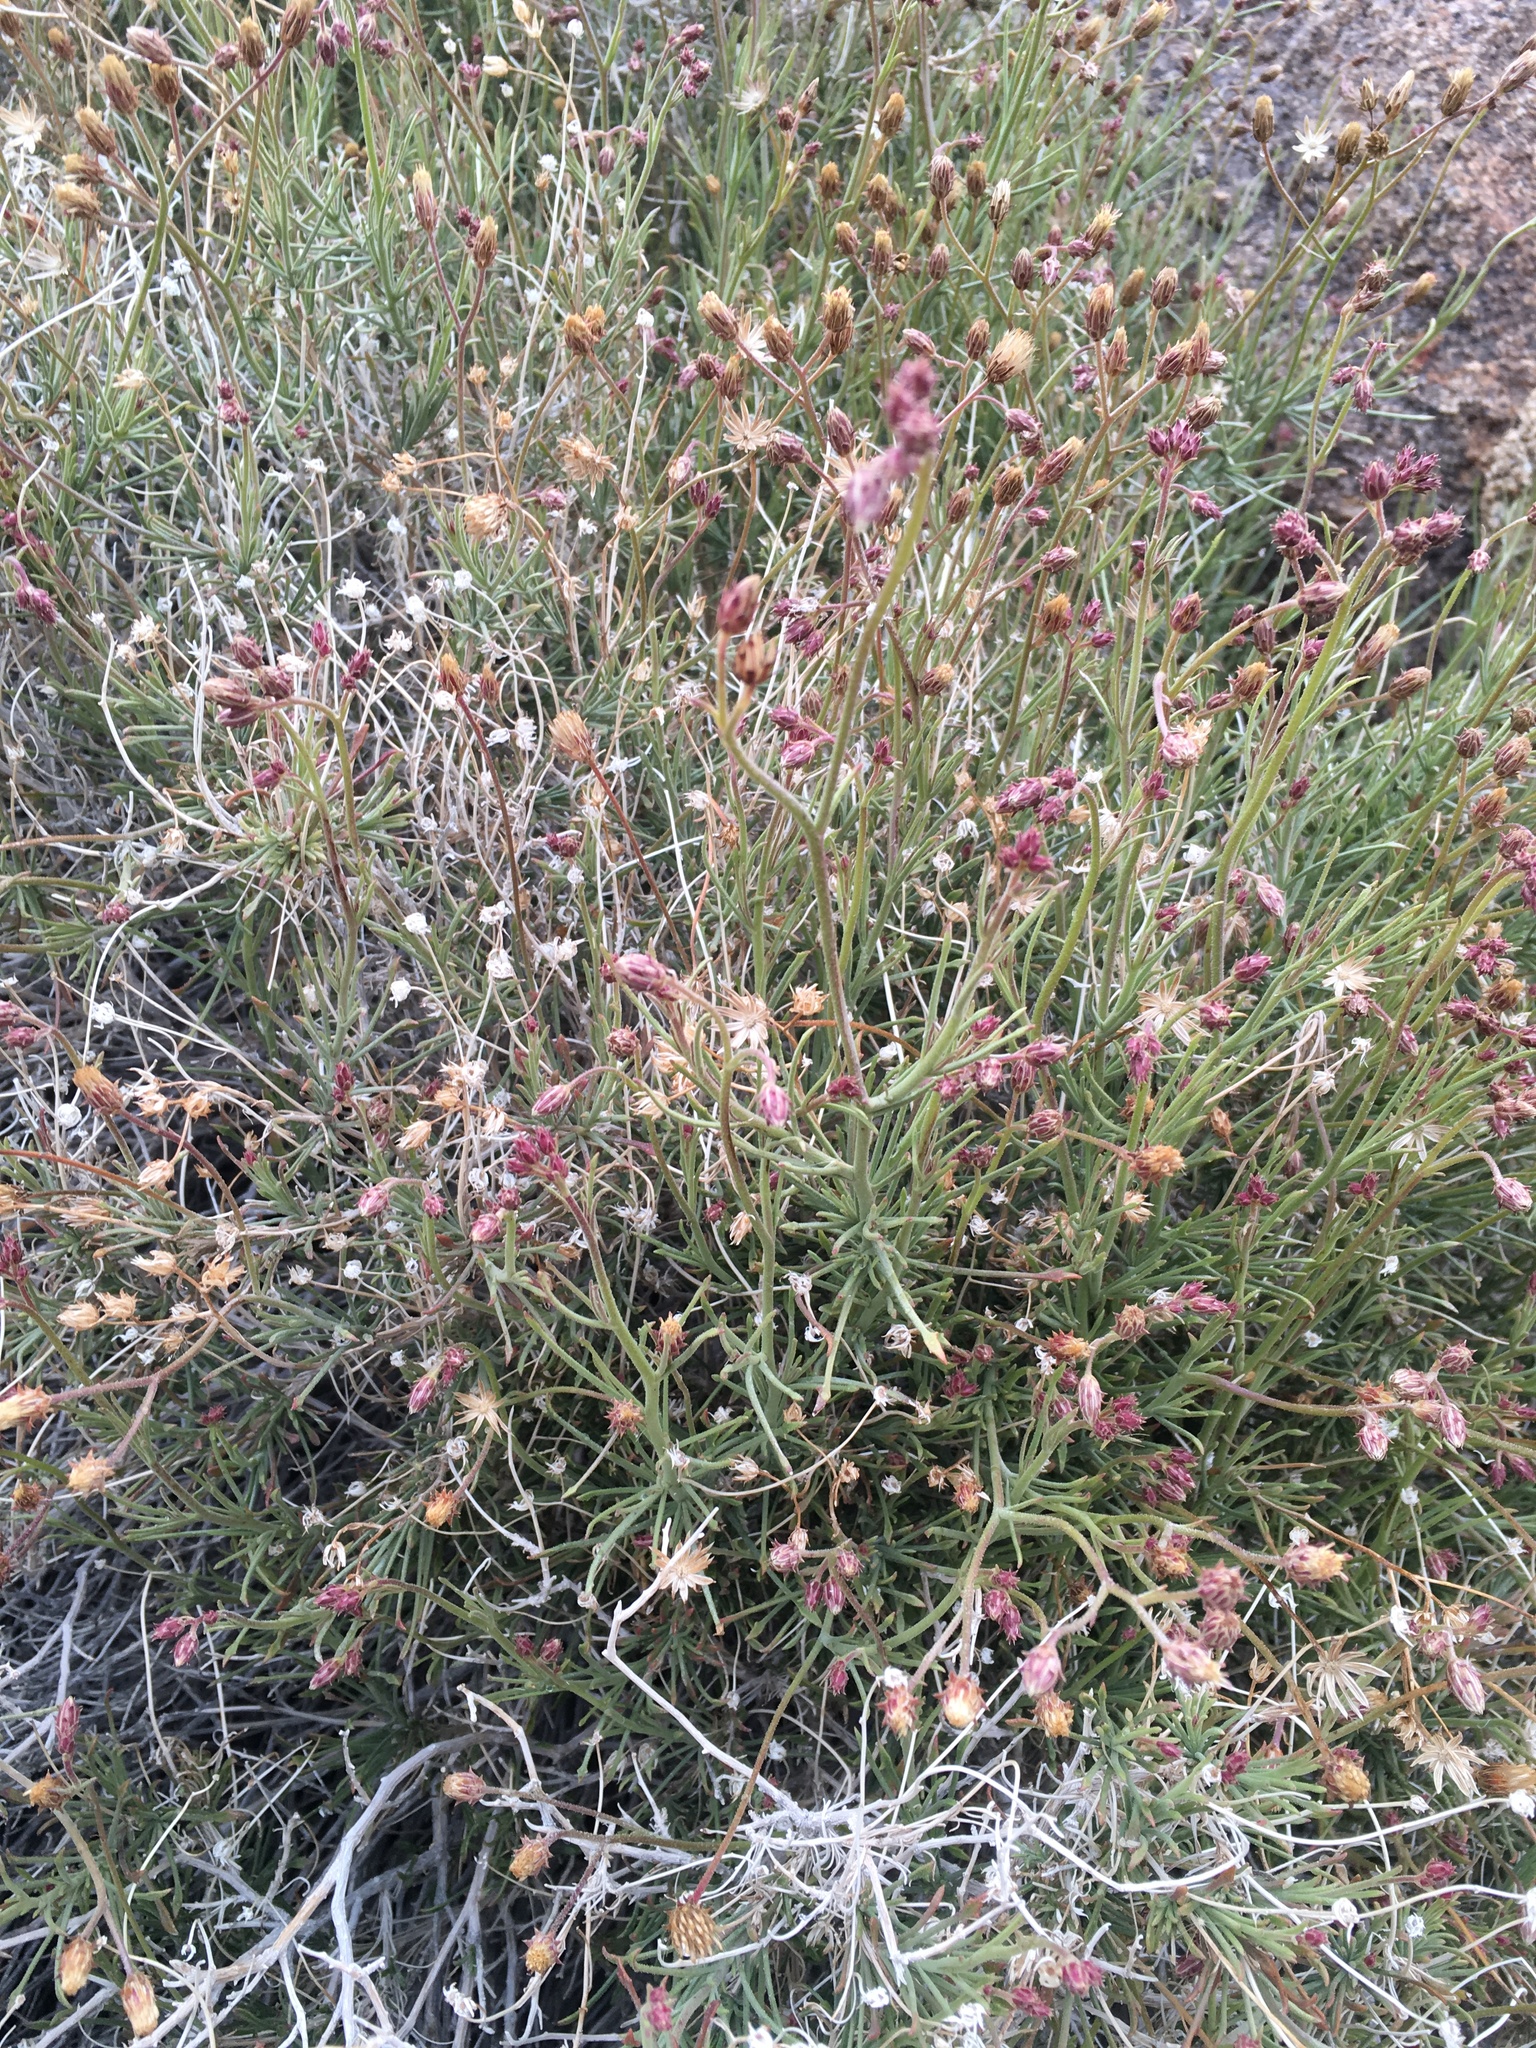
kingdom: Plantae
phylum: Tracheophyta
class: Magnoliopsida
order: Asterales
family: Asteraceae
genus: Pleurocoronis
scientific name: Pleurocoronis pluriseta
